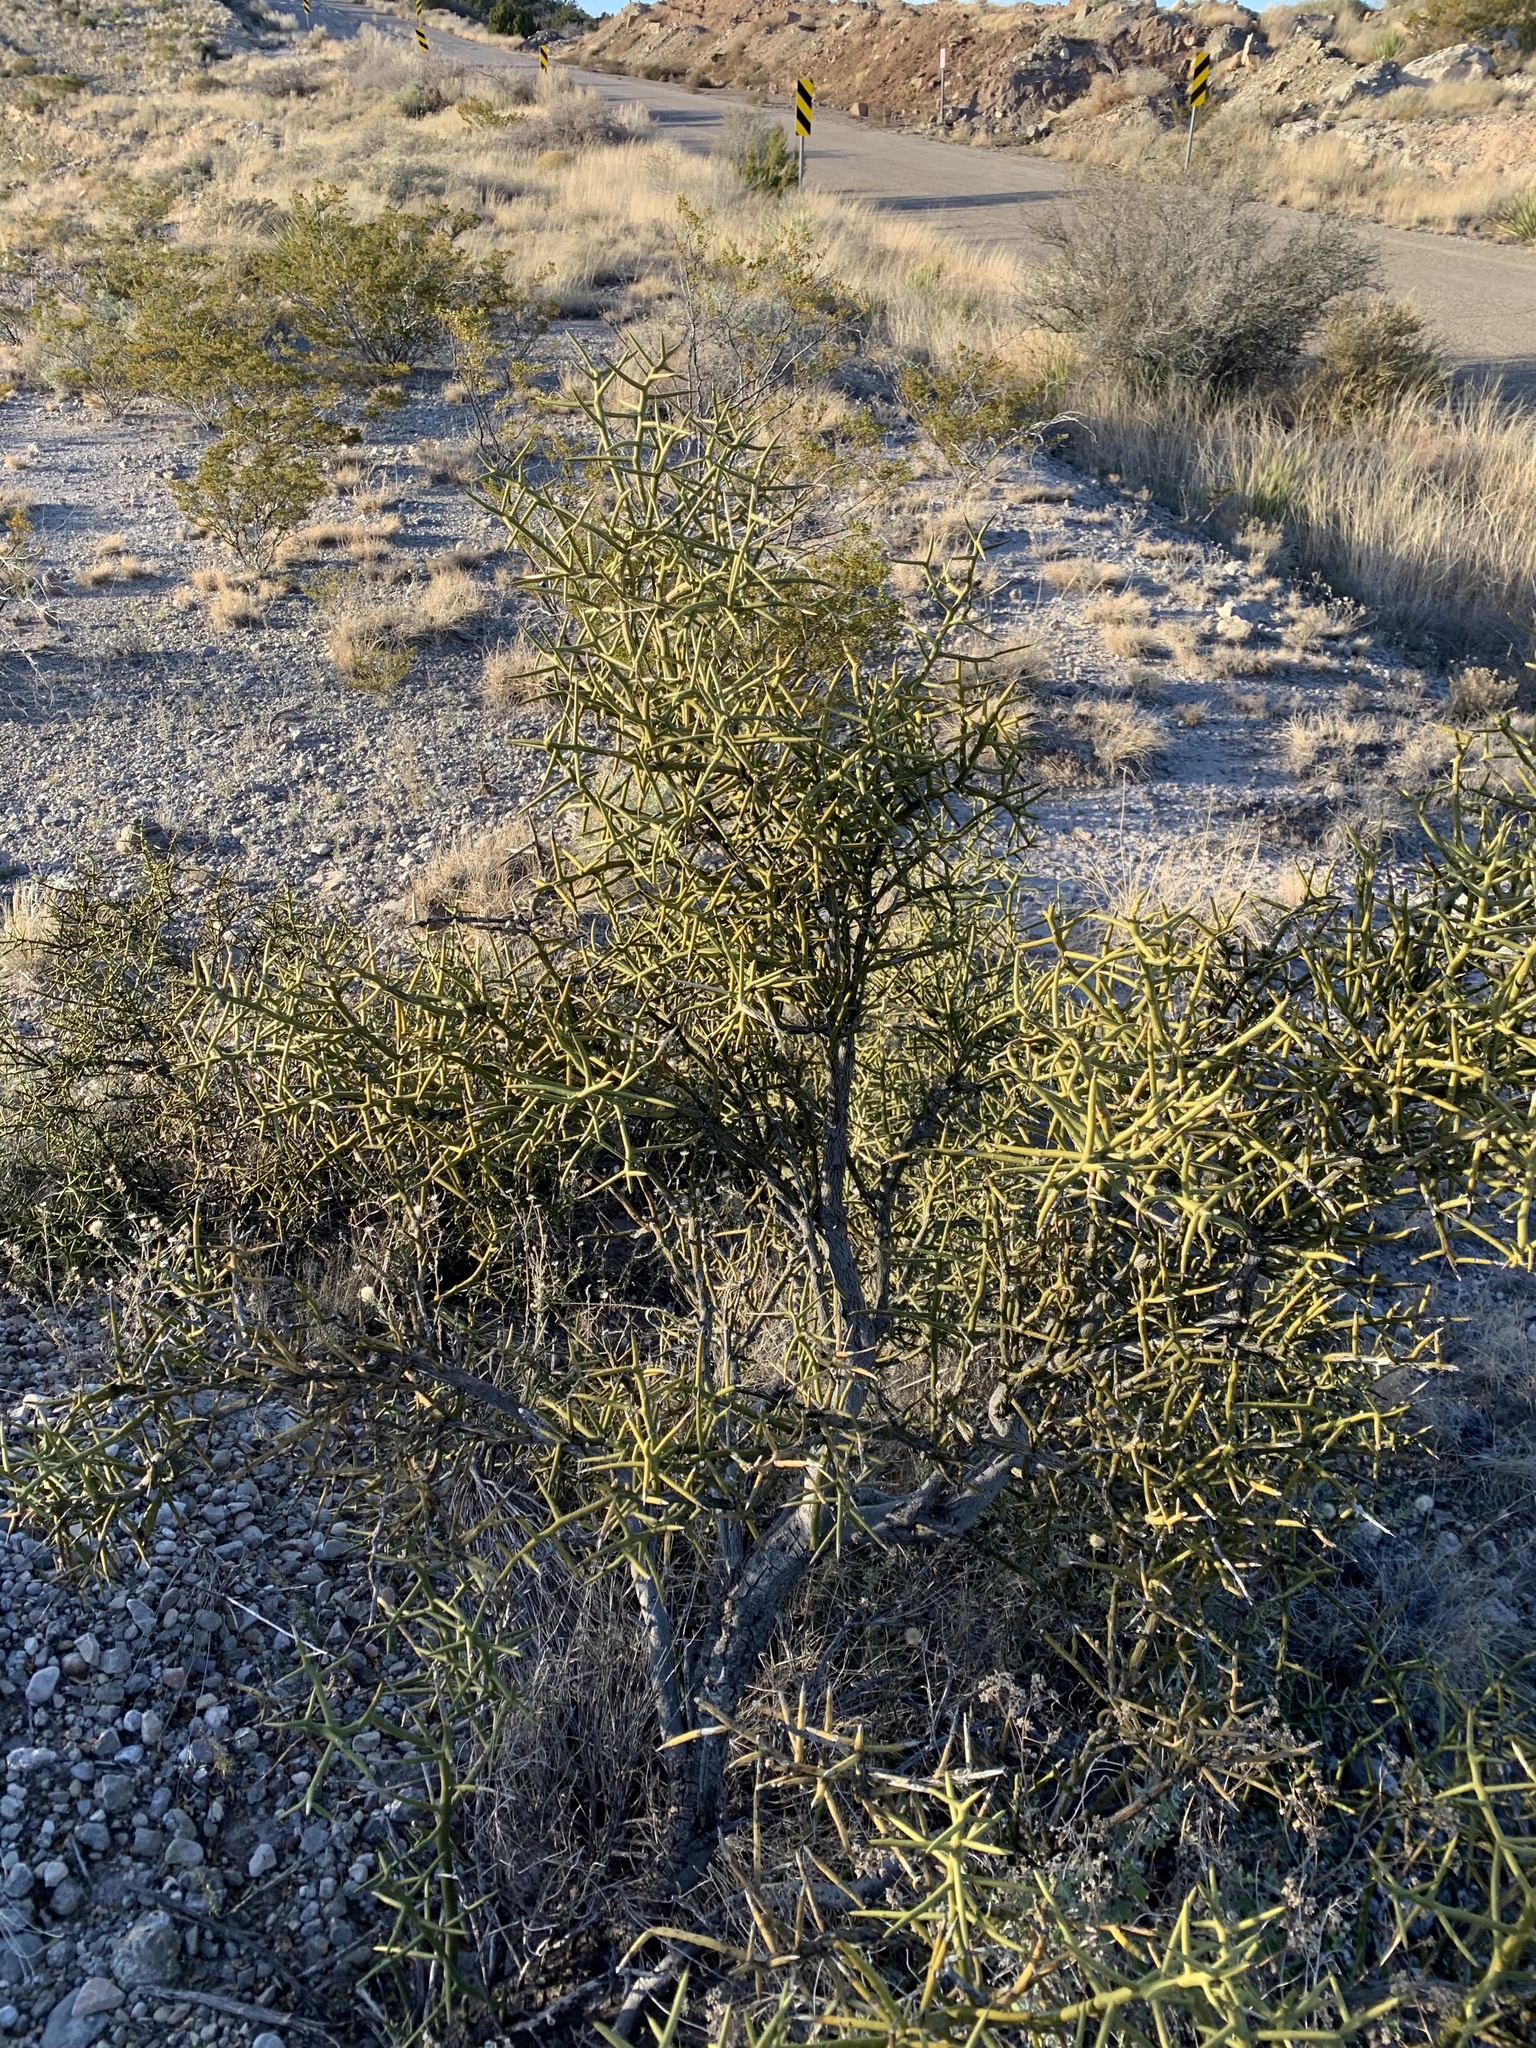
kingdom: Plantae
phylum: Tracheophyta
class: Magnoliopsida
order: Brassicales
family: Koeberliniaceae
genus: Koeberlinia
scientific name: Koeberlinia spinosa
